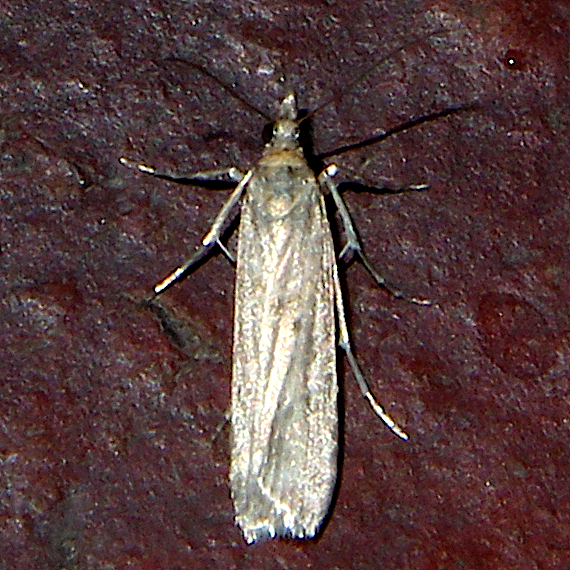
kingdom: Animalia
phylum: Arthropoda
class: Insecta
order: Lepidoptera
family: Crambidae
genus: Eudonia
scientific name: Eudonia leptalea
